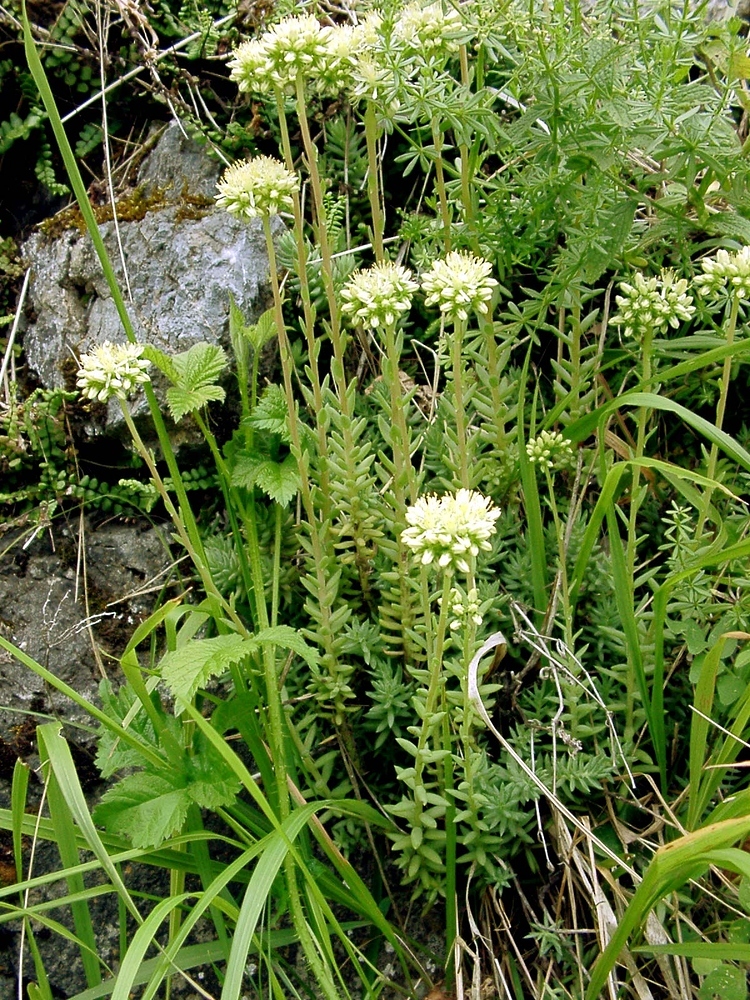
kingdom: Plantae
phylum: Tracheophyta
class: Magnoliopsida
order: Saxifragales
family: Crassulaceae
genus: Petrosedum
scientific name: Petrosedum sediforme
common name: Pale stonecrop
